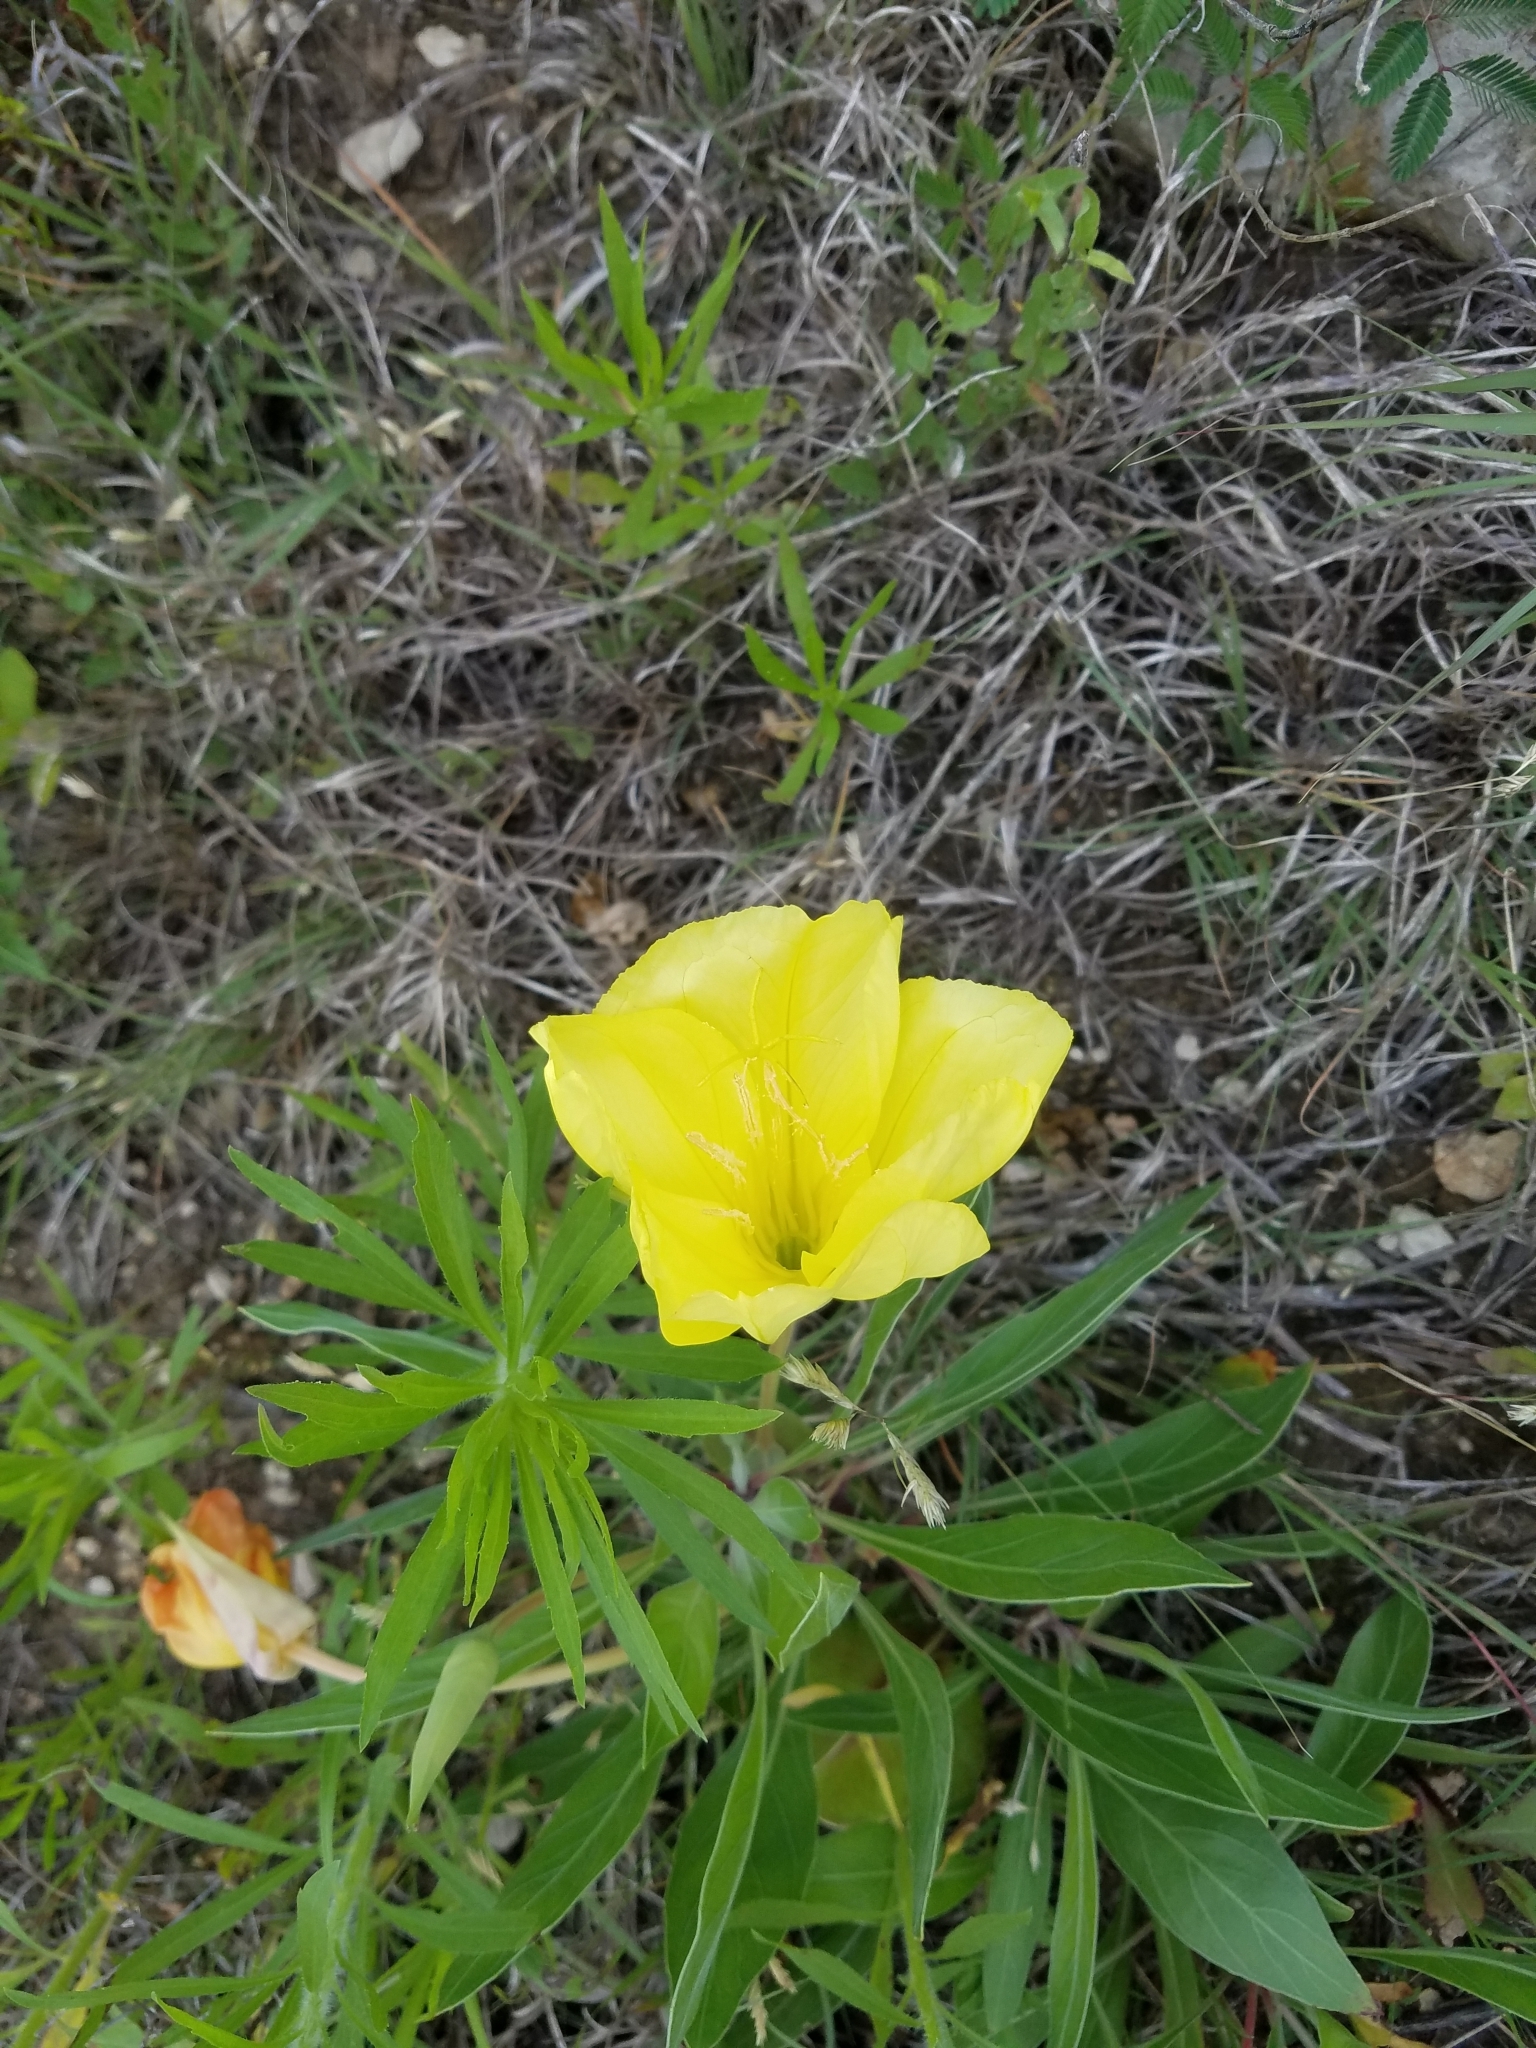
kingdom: Plantae
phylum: Tracheophyta
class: Magnoliopsida
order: Myrtales
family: Onagraceae
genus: Oenothera
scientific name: Oenothera macrocarpa
